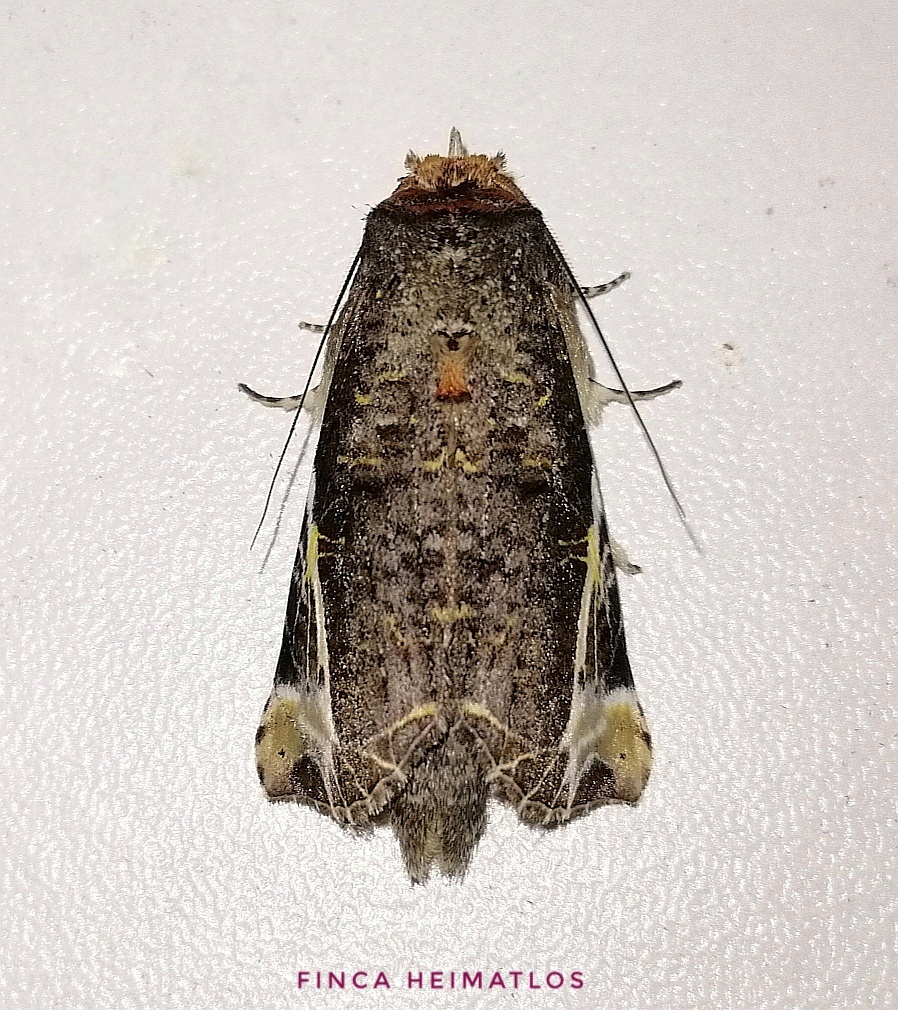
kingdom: Animalia
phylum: Arthropoda
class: Insecta
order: Lepidoptera
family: Notodontidae
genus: Calledema
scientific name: Calledema marmorea
